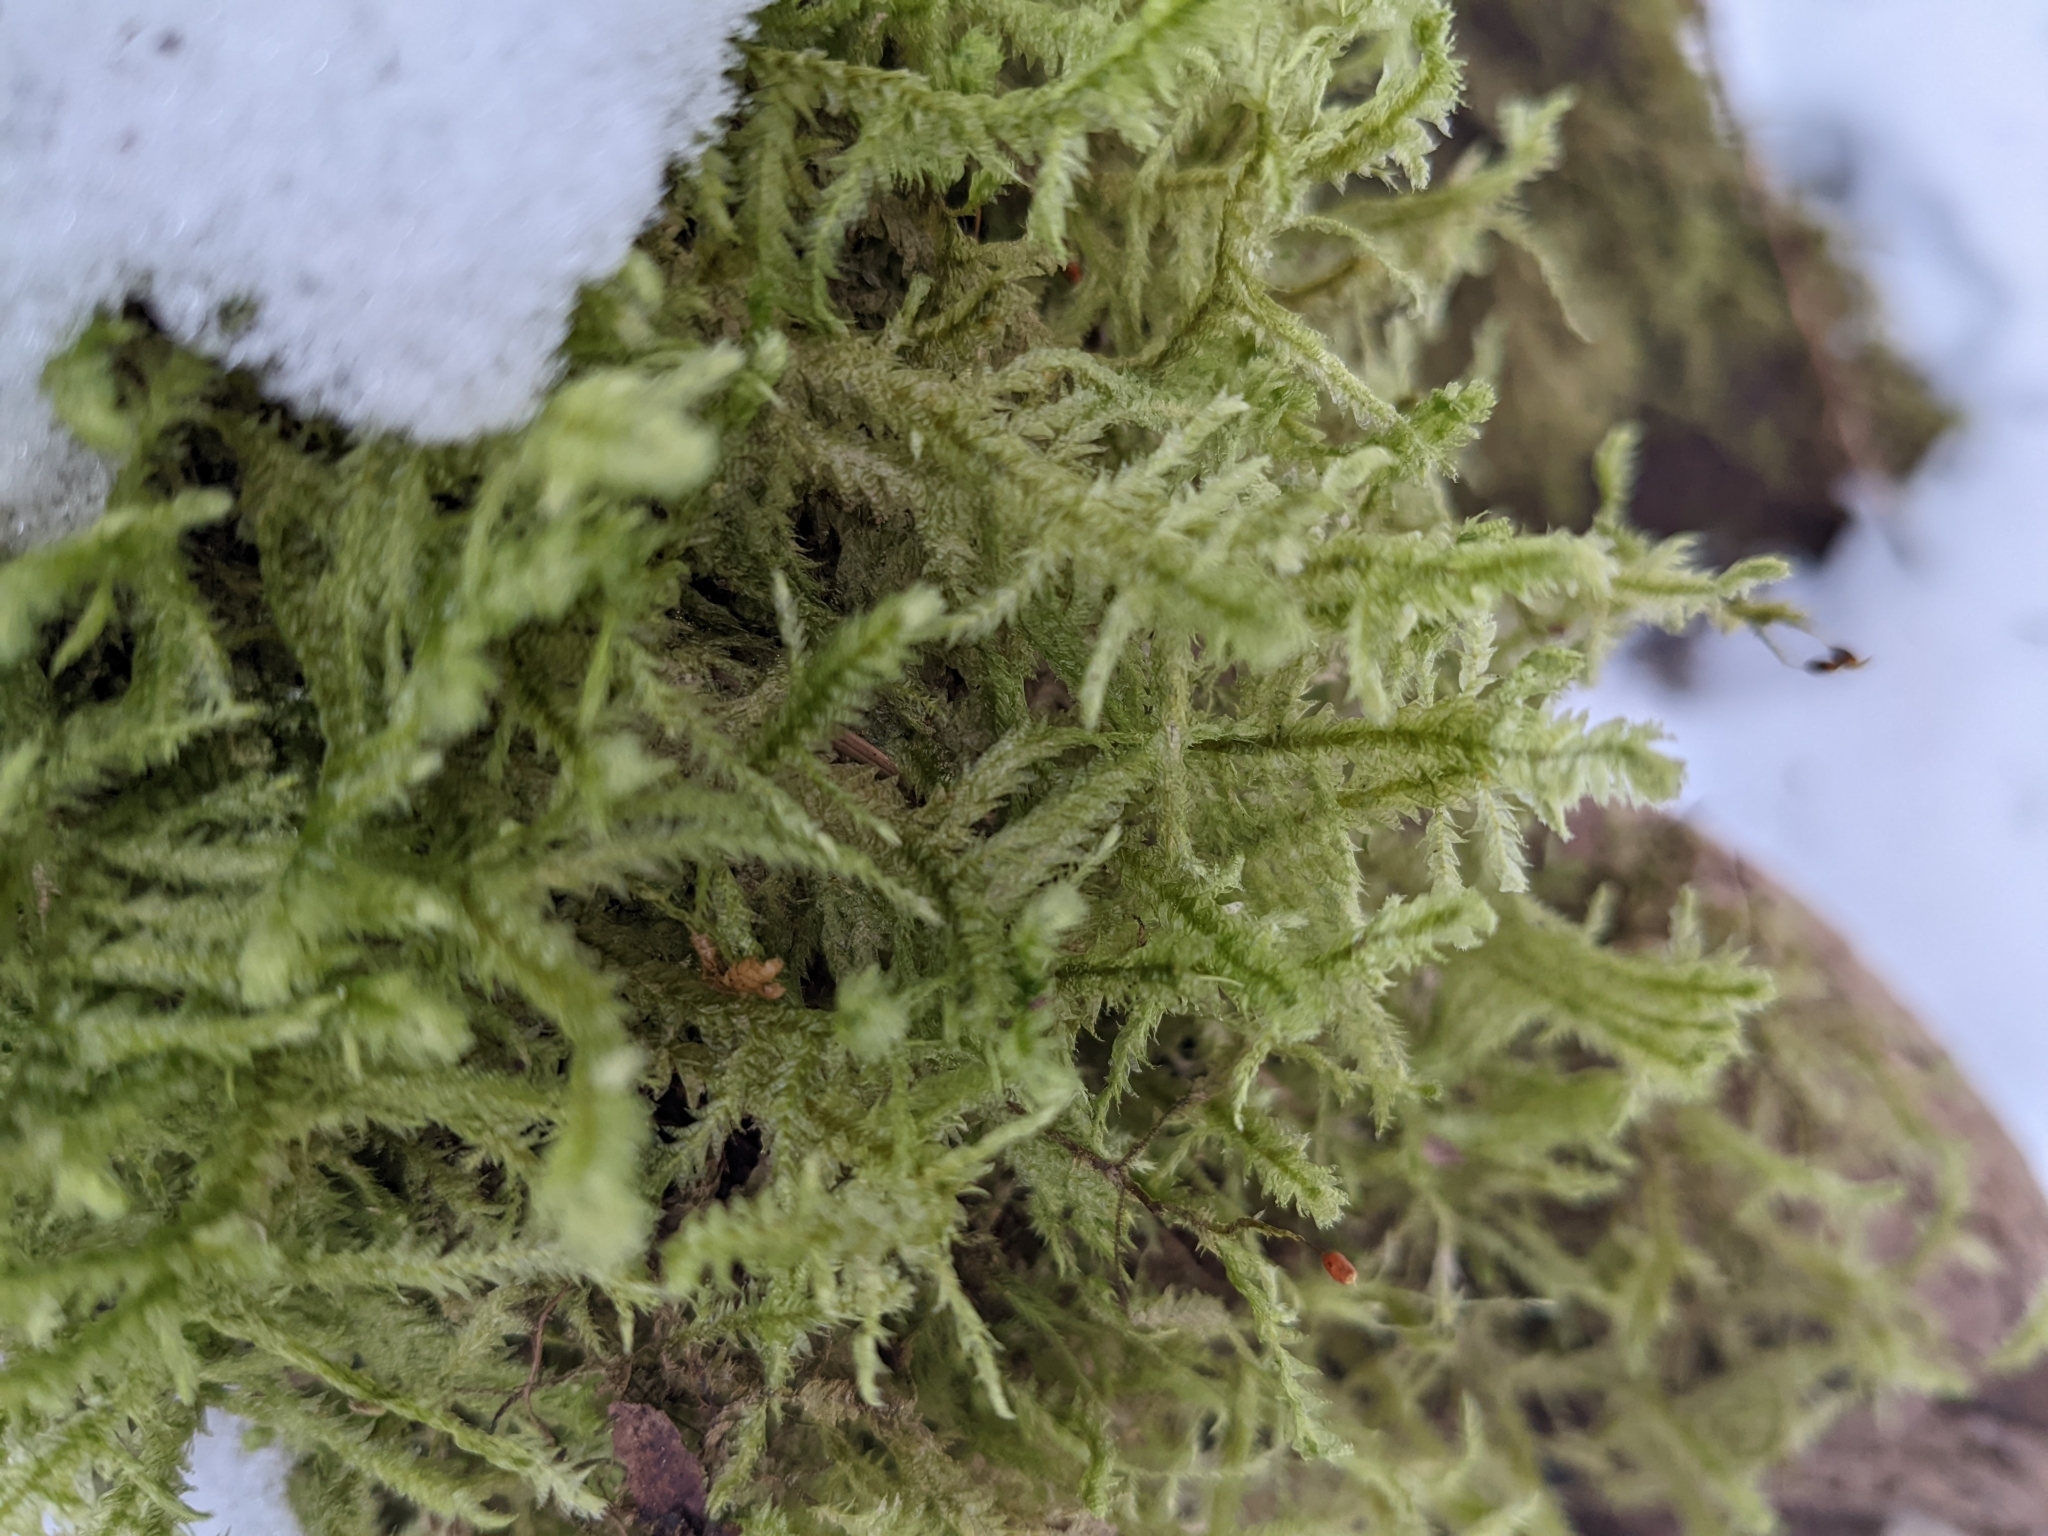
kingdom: Plantae
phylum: Bryophyta
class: Bryopsida
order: Hypnales
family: Neckeraceae
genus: Neckera
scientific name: Neckera douglasii
